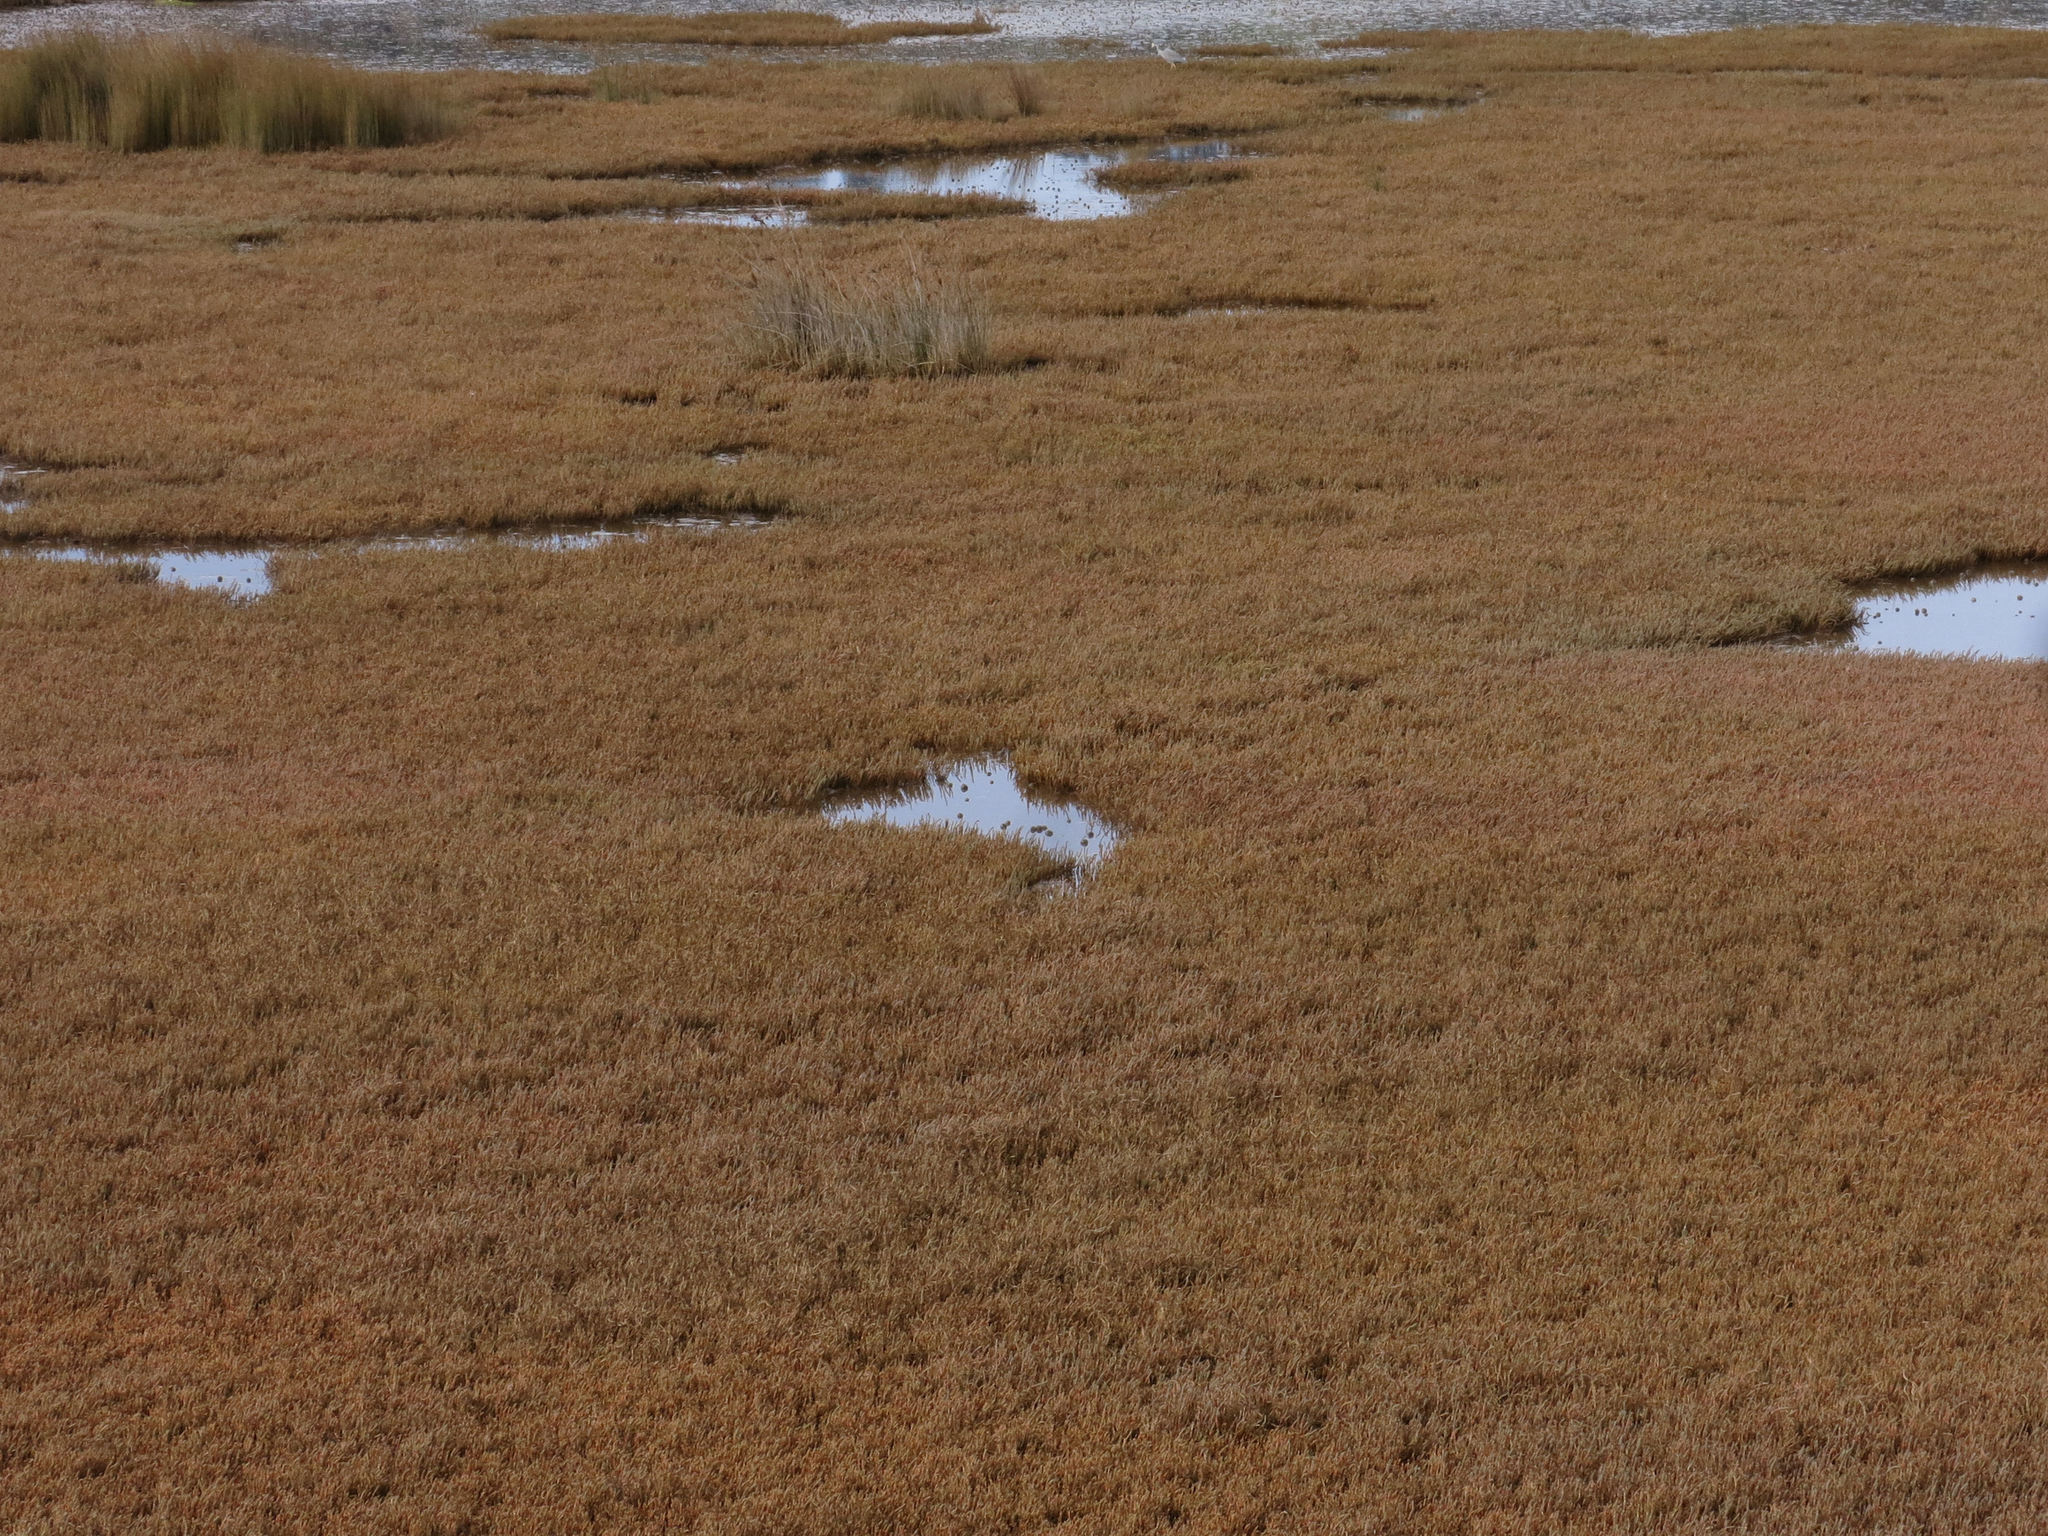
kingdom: Plantae
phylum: Tracheophyta
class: Magnoliopsida
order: Caryophyllales
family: Amaranthaceae
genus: Salicornia
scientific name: Salicornia quinqueflora
